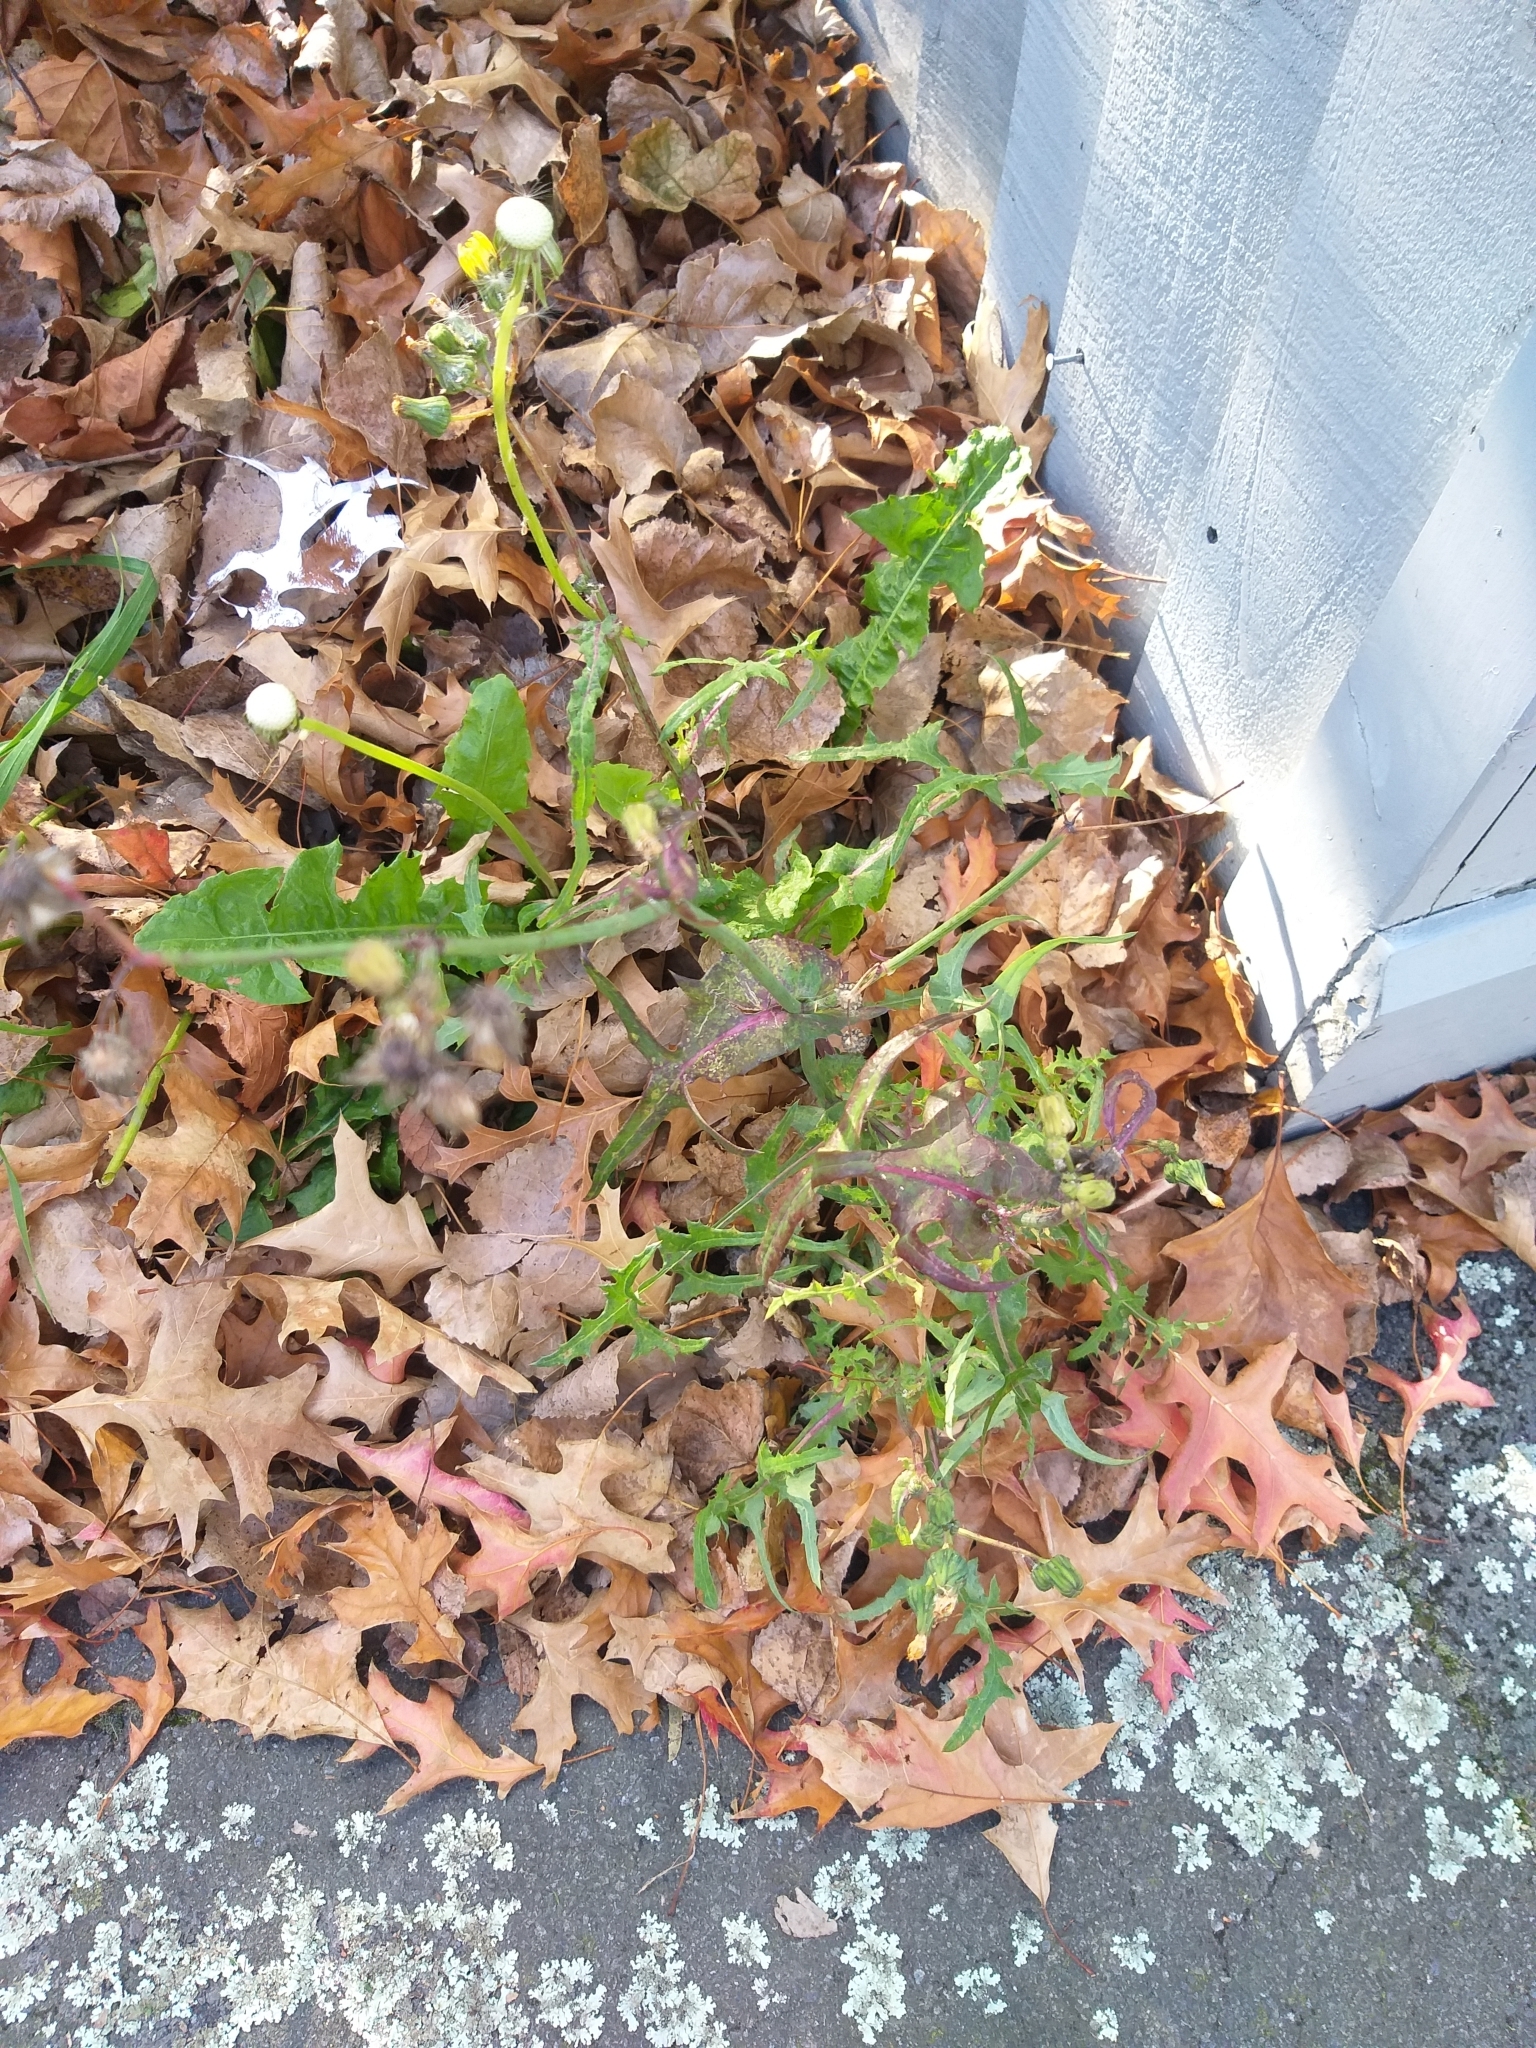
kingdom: Plantae
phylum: Tracheophyta
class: Magnoliopsida
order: Asterales
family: Asteraceae
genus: Sonchus
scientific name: Sonchus oleraceus
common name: Common sowthistle
